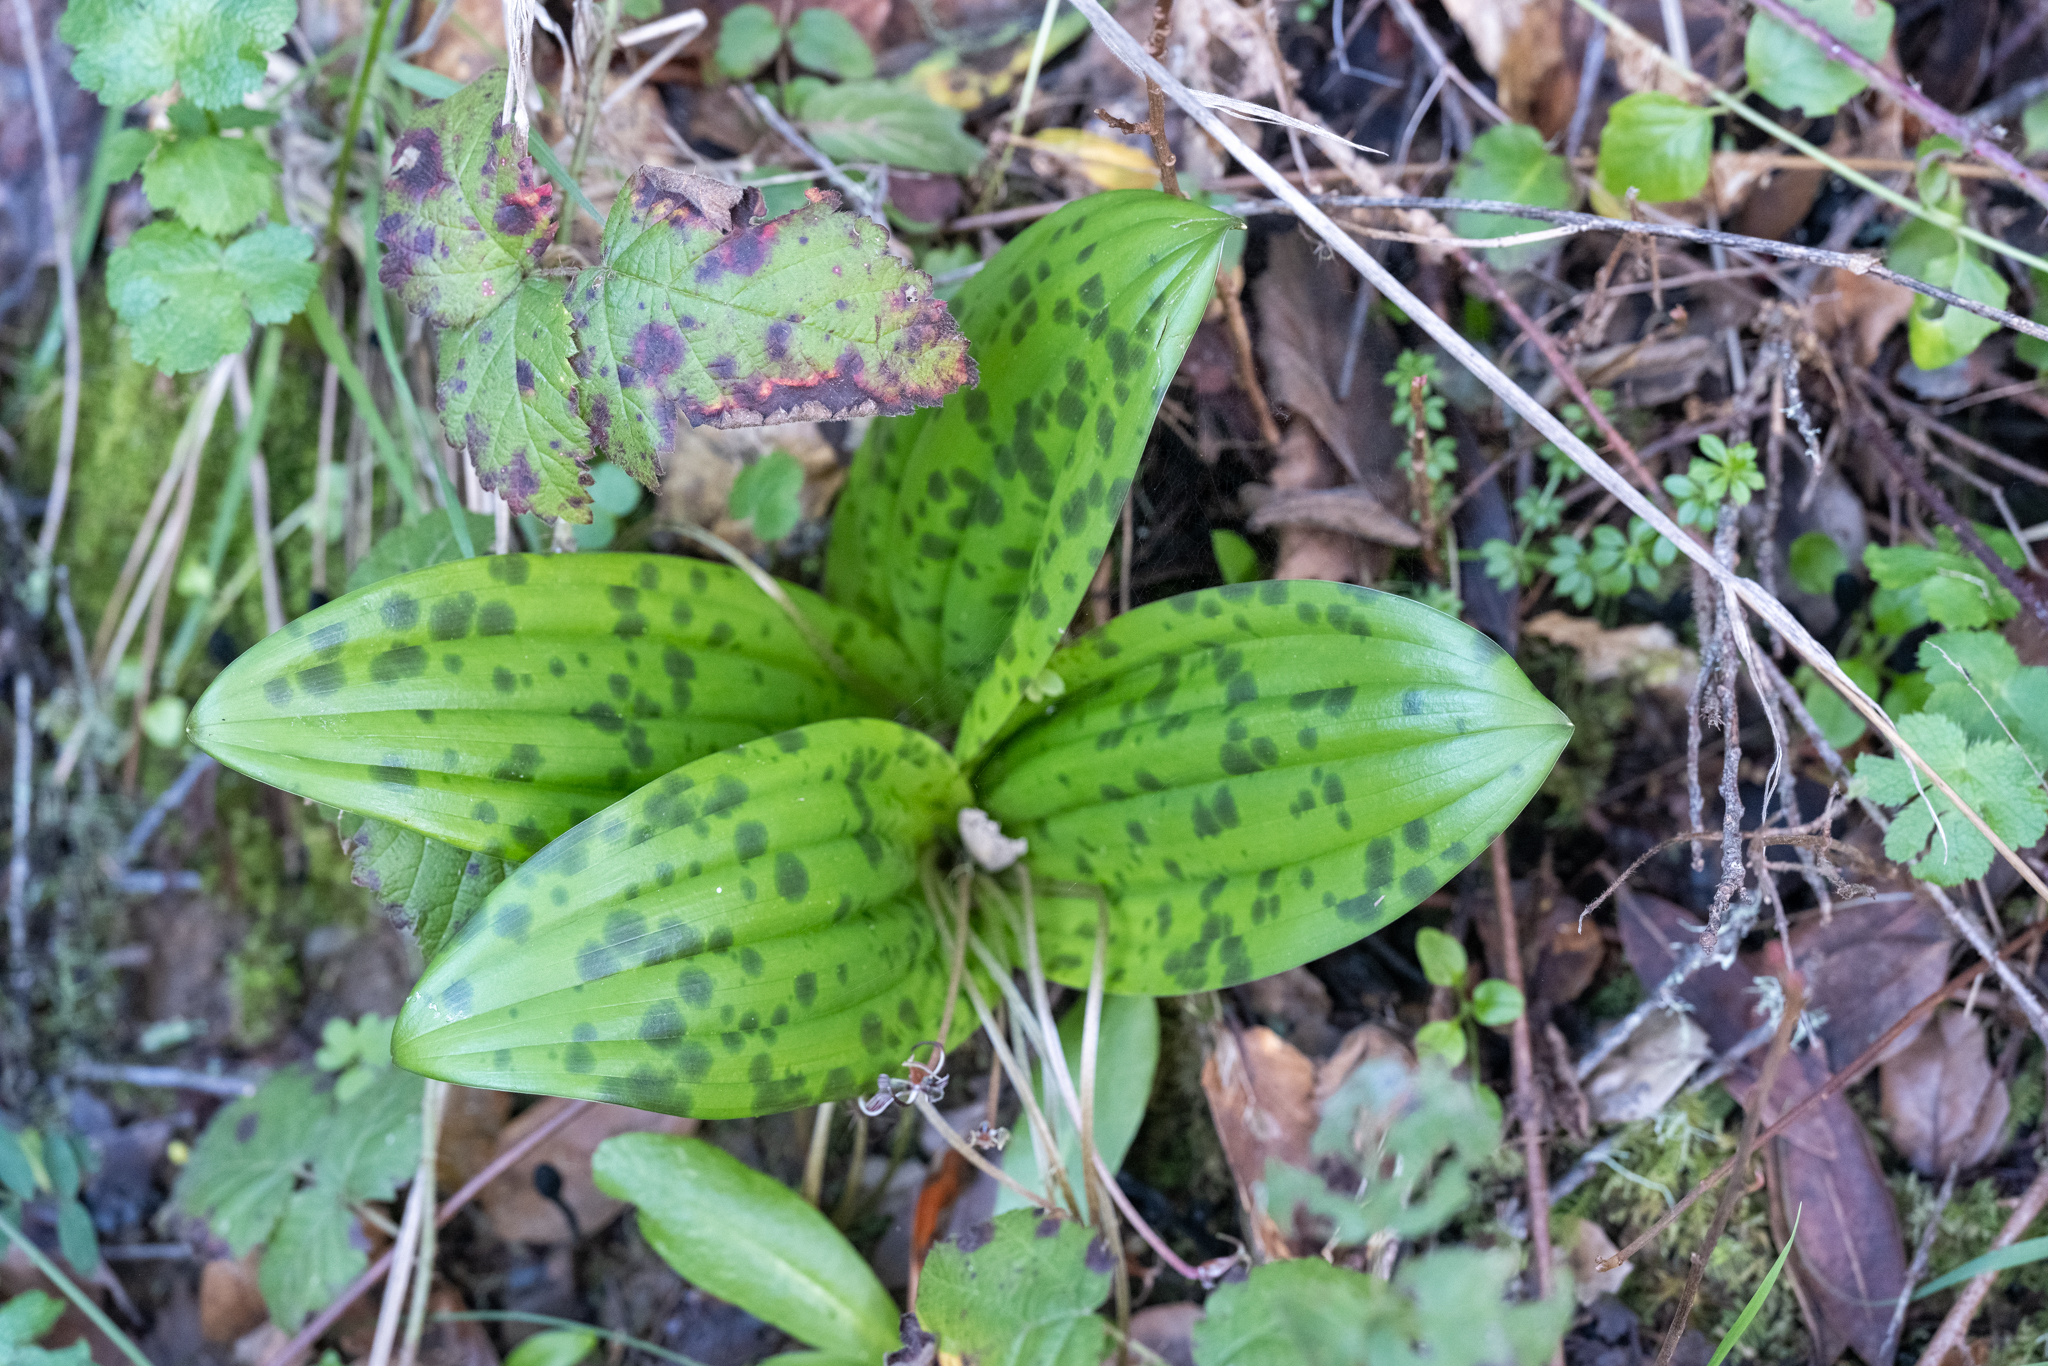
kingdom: Plantae
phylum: Tracheophyta
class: Liliopsida
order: Liliales
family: Liliaceae
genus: Scoliopus
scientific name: Scoliopus bigelovii
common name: Foetid adder's-tongue
